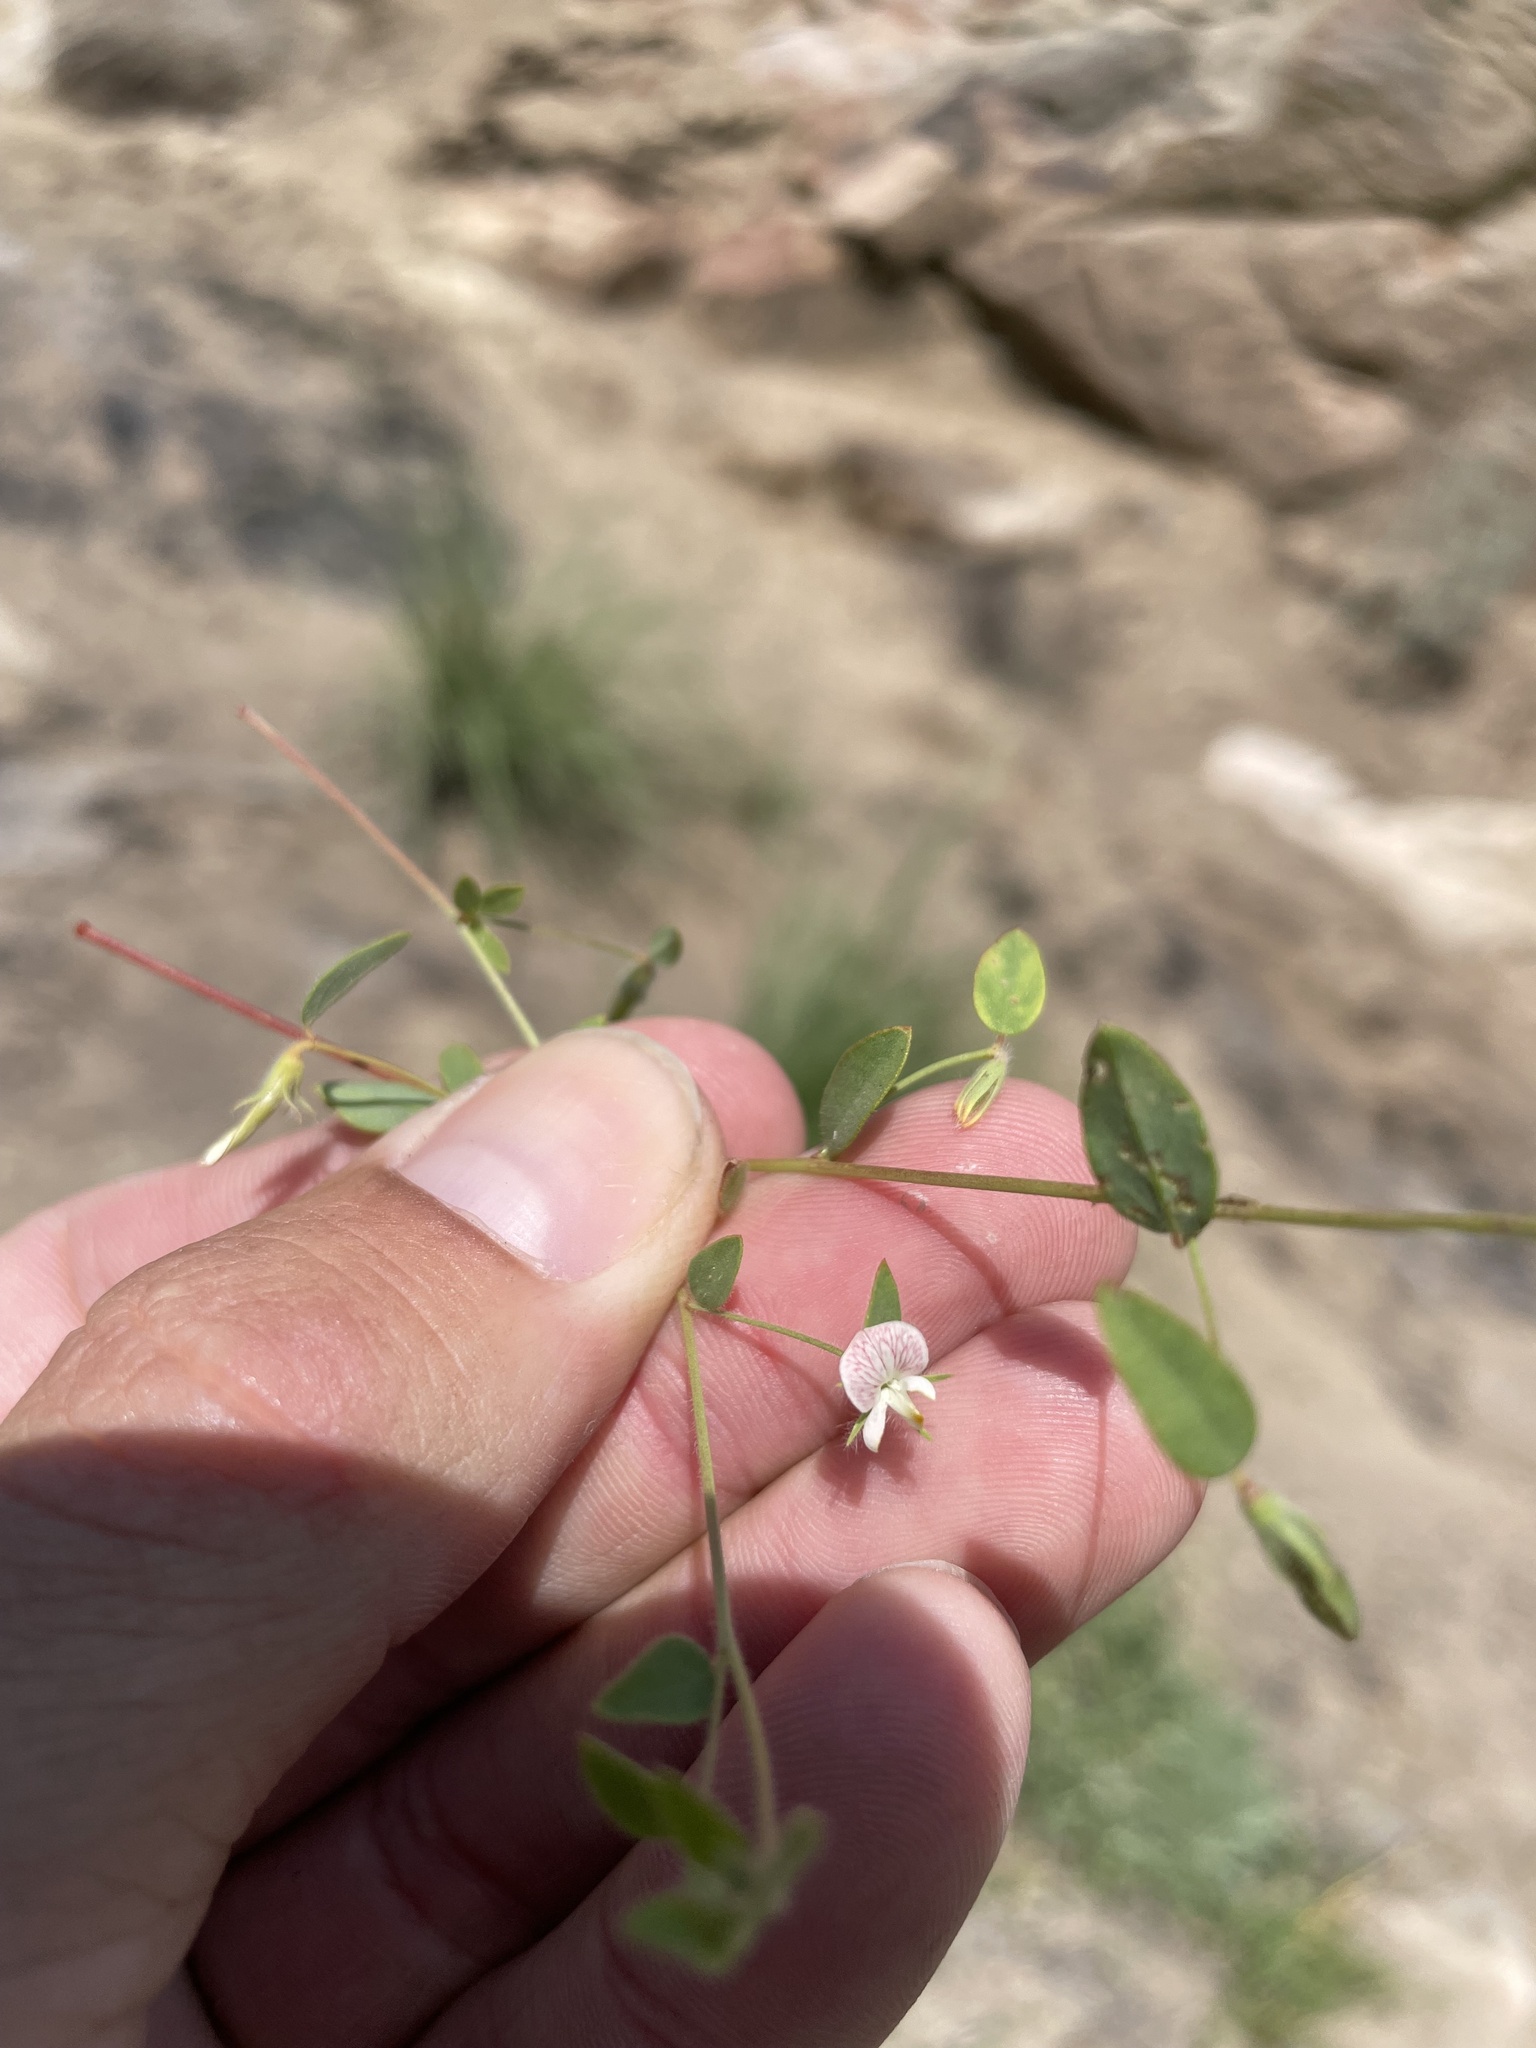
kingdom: Plantae
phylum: Tracheophyta
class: Magnoliopsida
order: Fabales
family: Fabaceae
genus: Acmispon
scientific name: Acmispon americanus
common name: American bird's-foot trefoil
